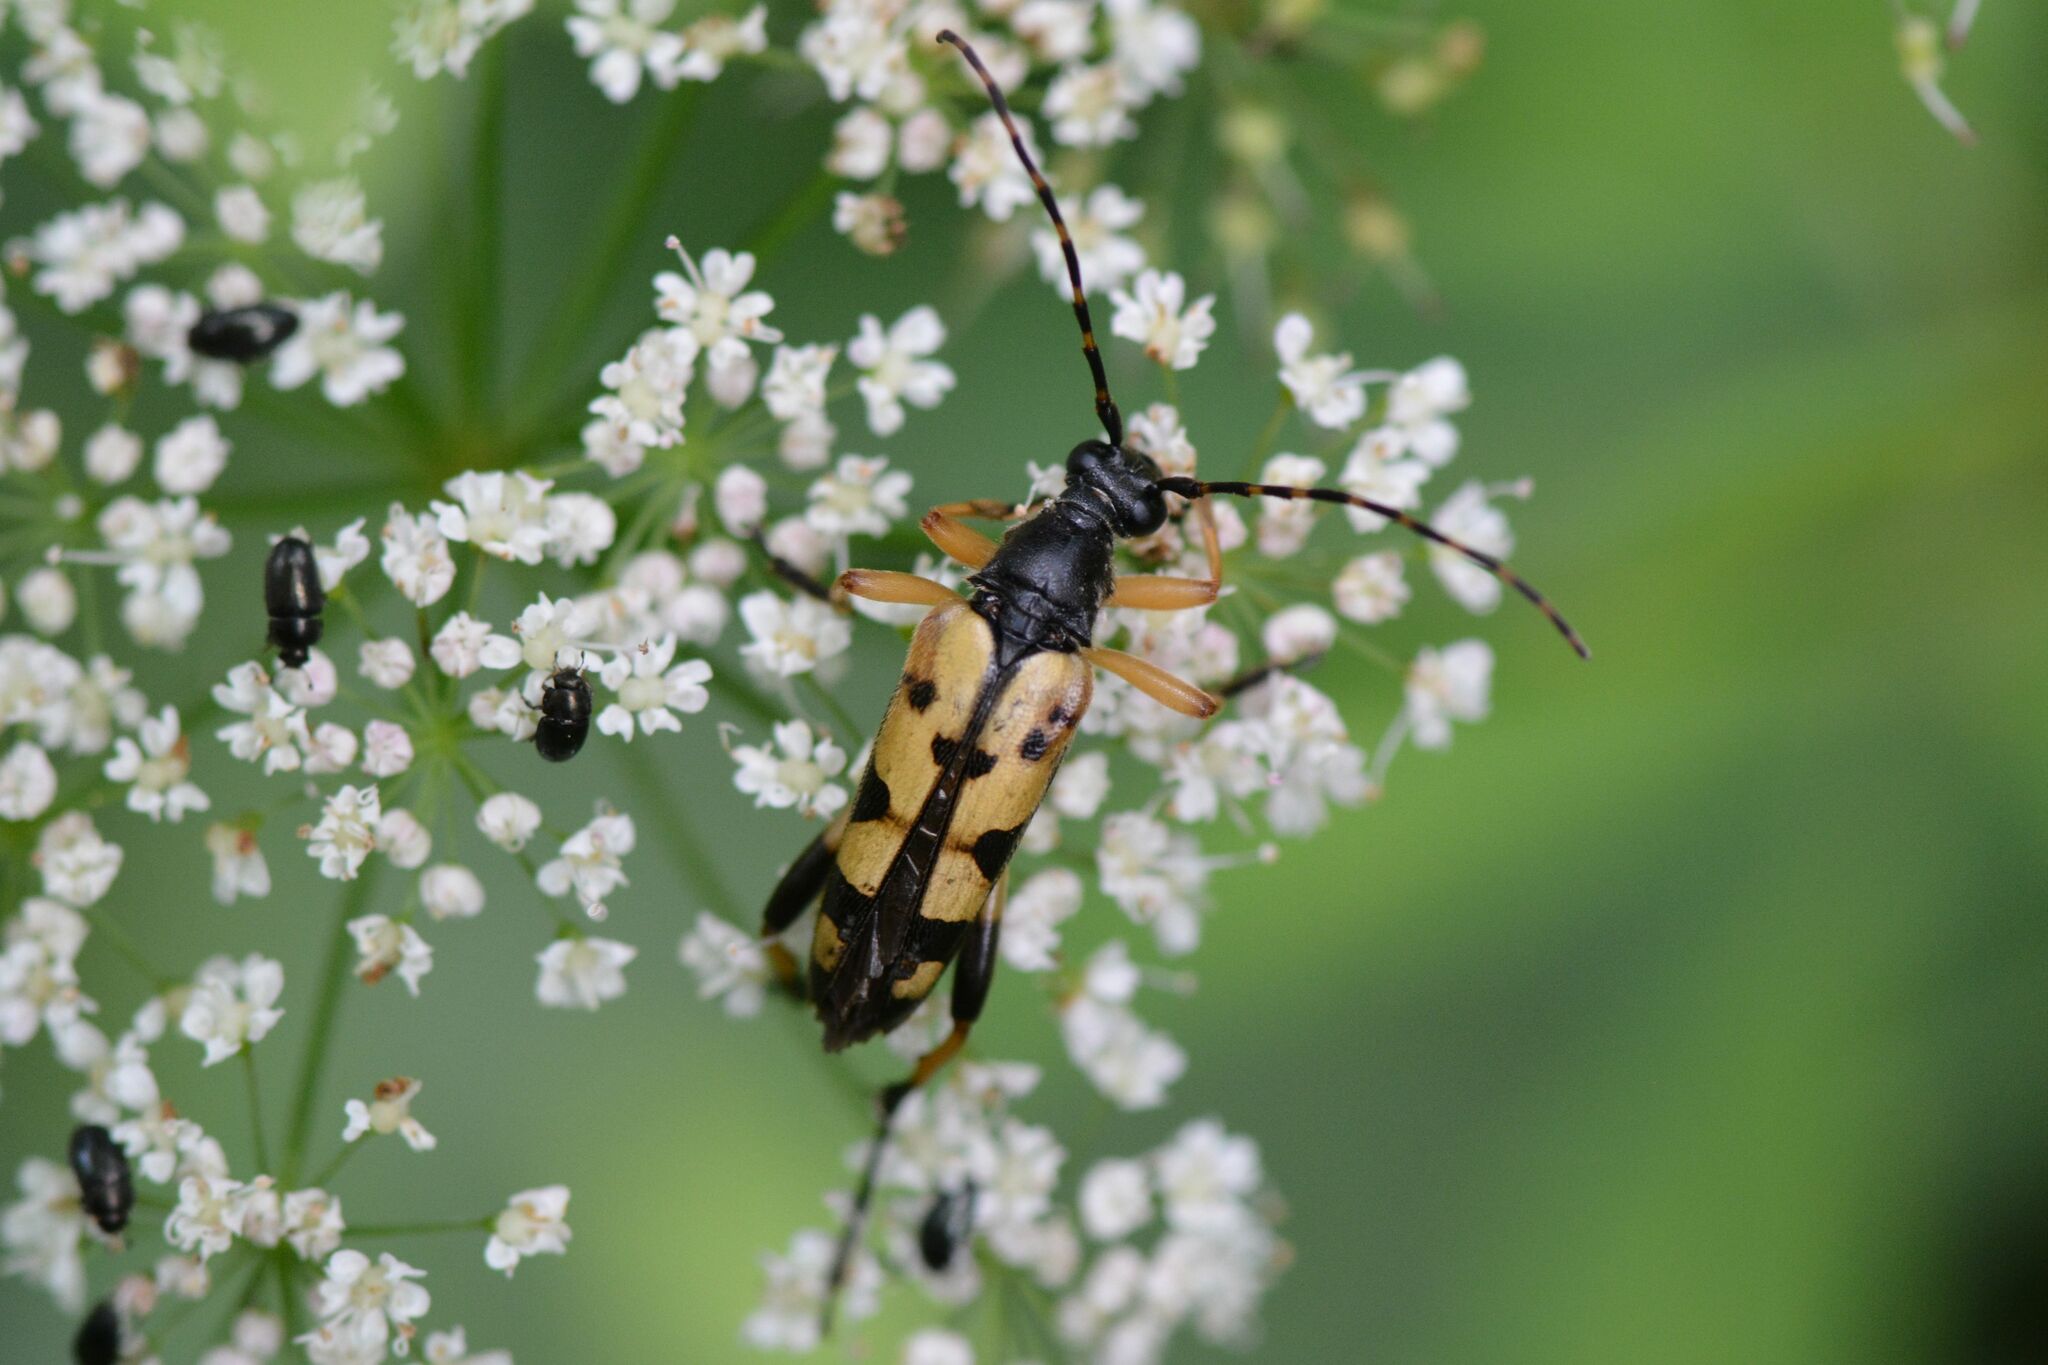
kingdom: Animalia
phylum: Arthropoda
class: Insecta
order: Coleoptera
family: Cerambycidae
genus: Rutpela
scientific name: Rutpela maculata
